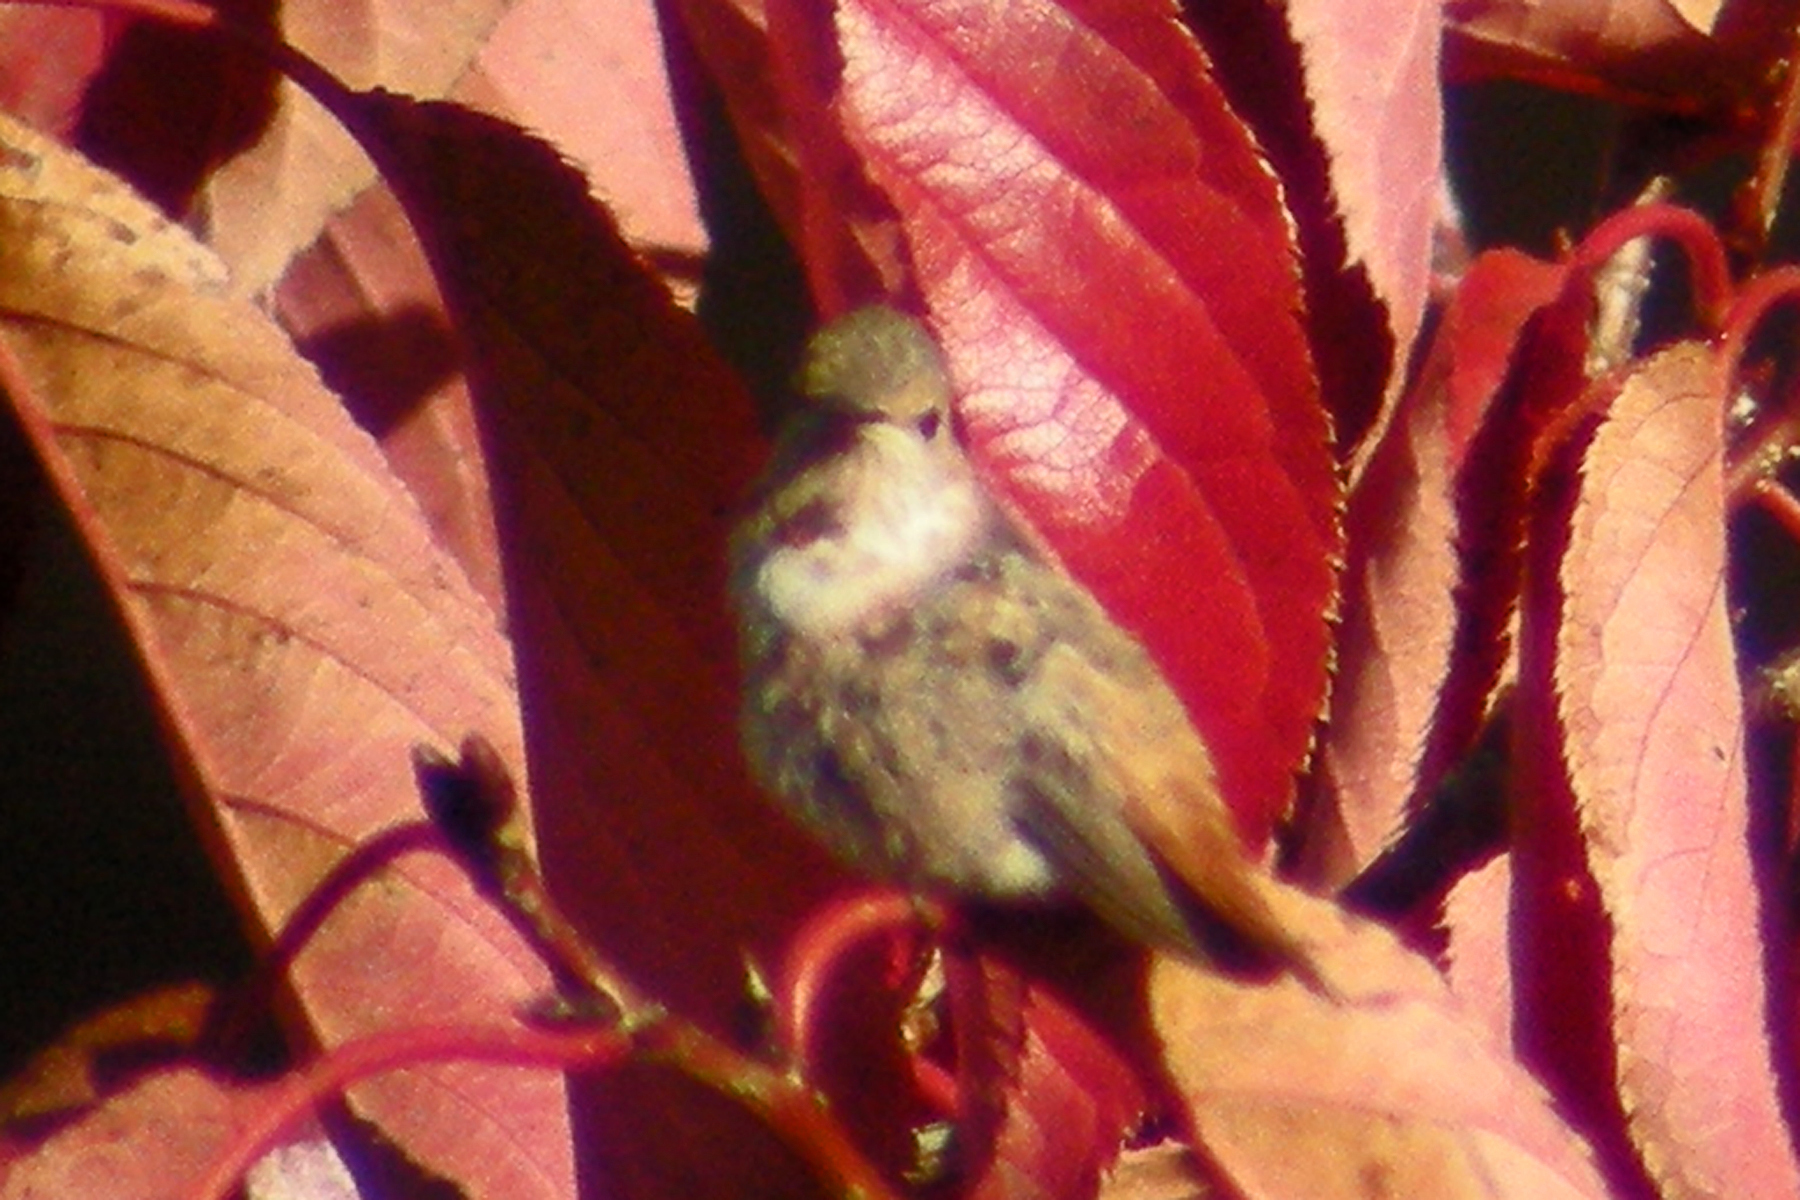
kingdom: Animalia
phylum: Chordata
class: Aves
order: Apodiformes
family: Trochilidae
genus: Selasphorus
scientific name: Selasphorus sasin
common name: Allen's hummingbird
